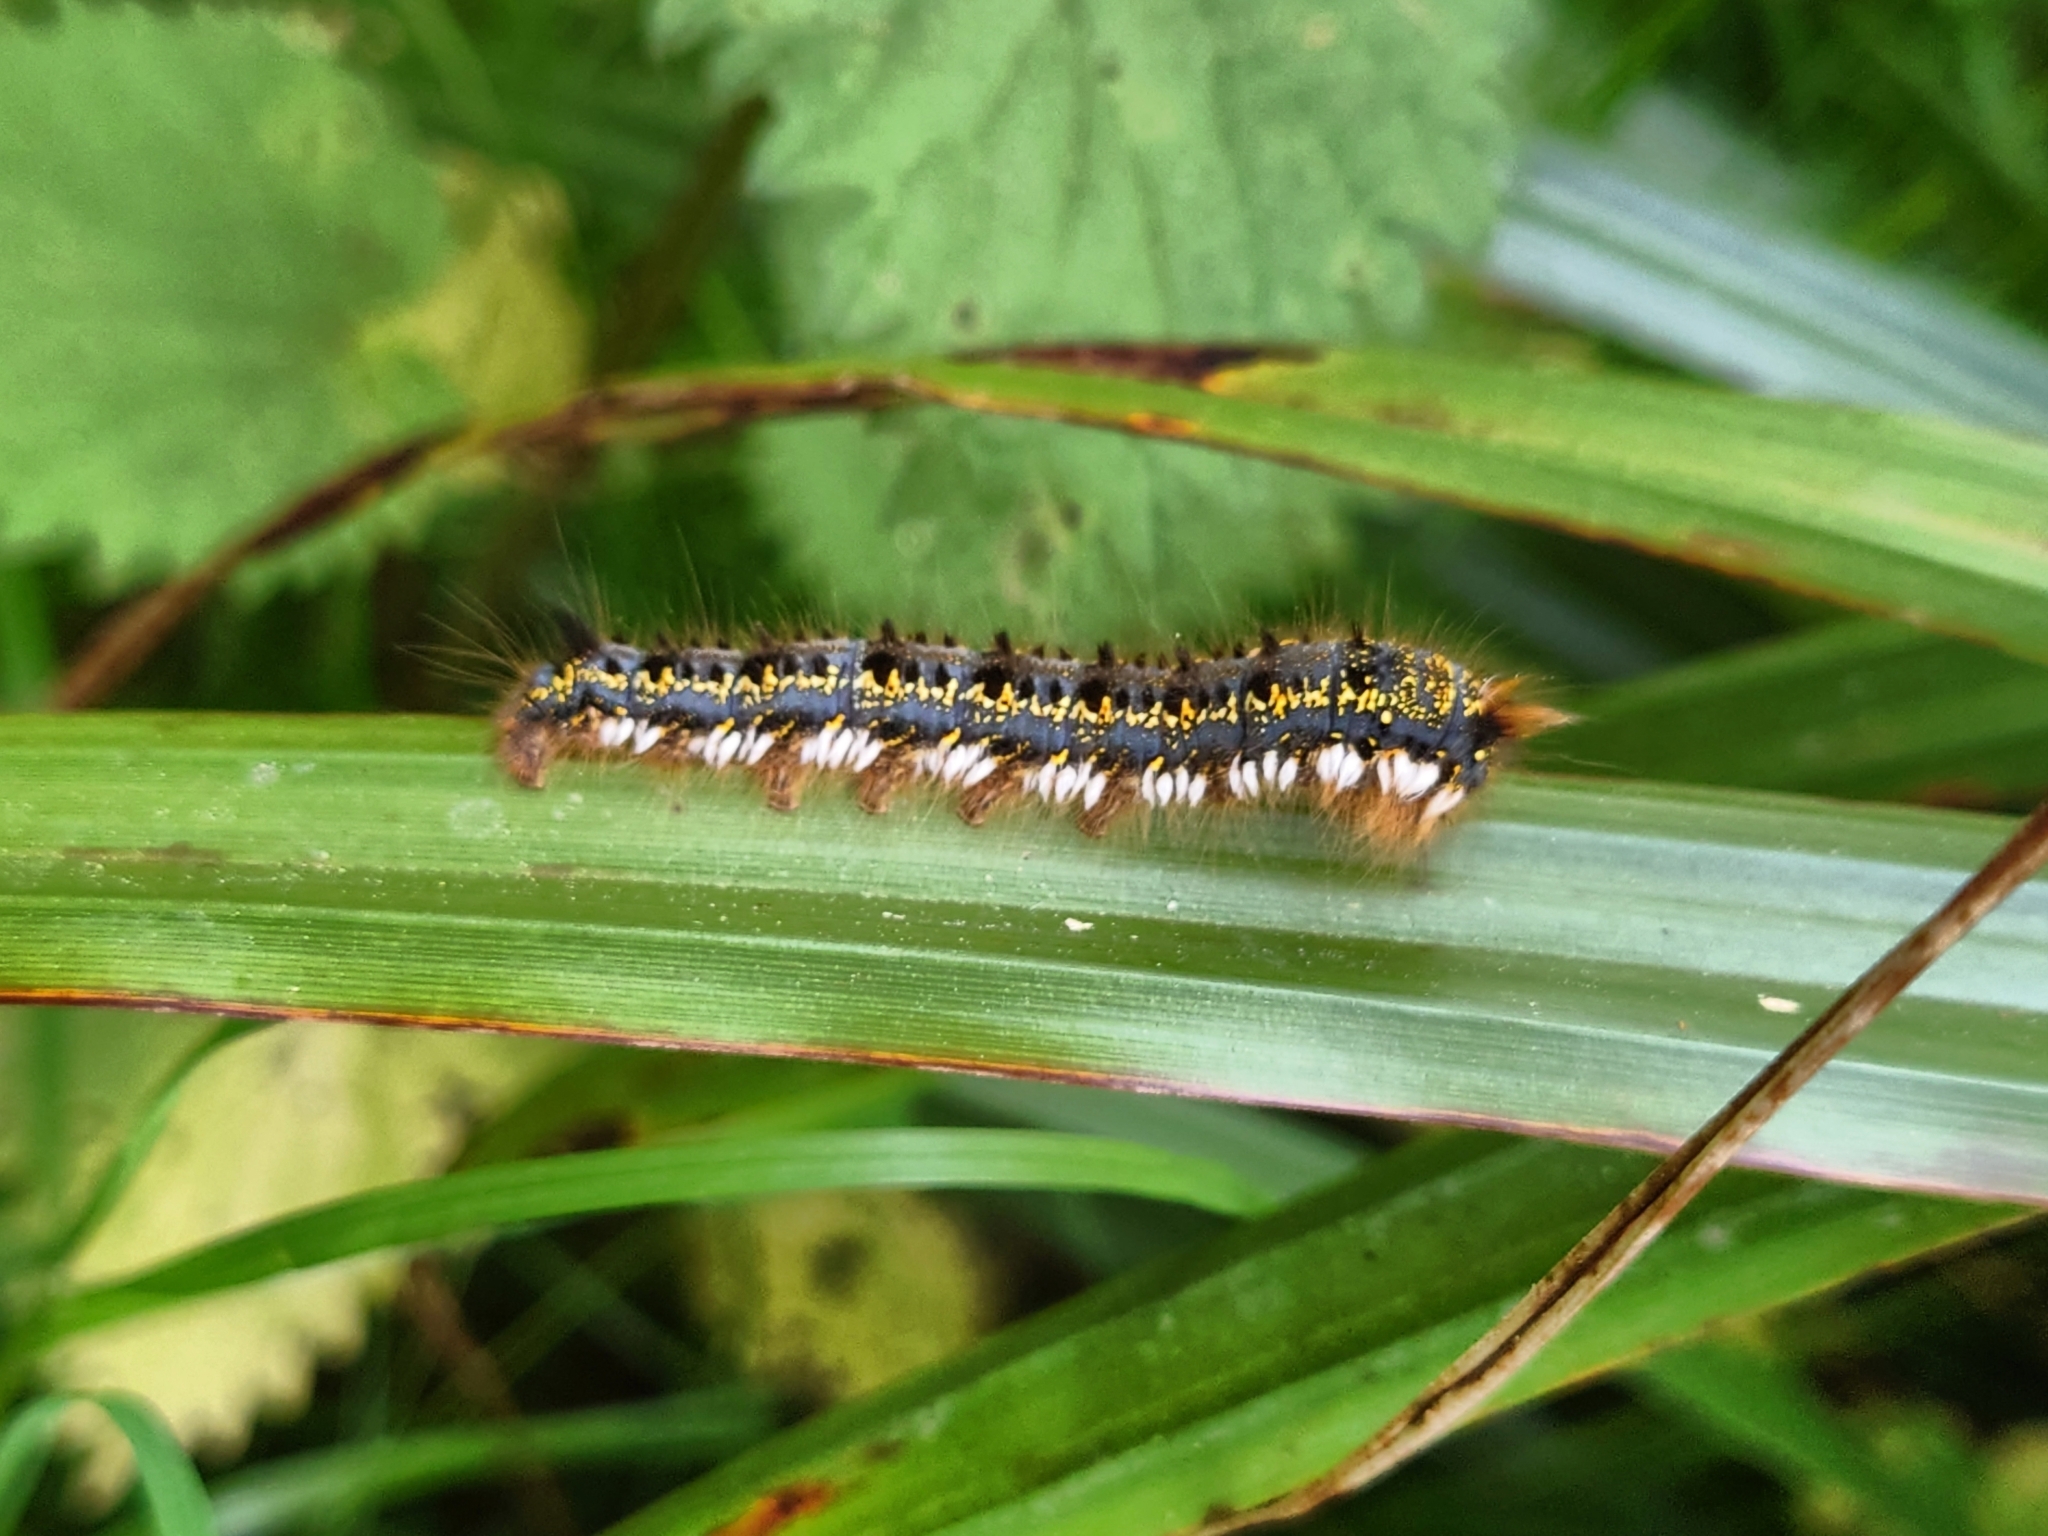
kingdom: Animalia
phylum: Arthropoda
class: Insecta
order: Lepidoptera
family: Lasiocampidae
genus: Euthrix
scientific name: Euthrix potatoria
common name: Drinker
